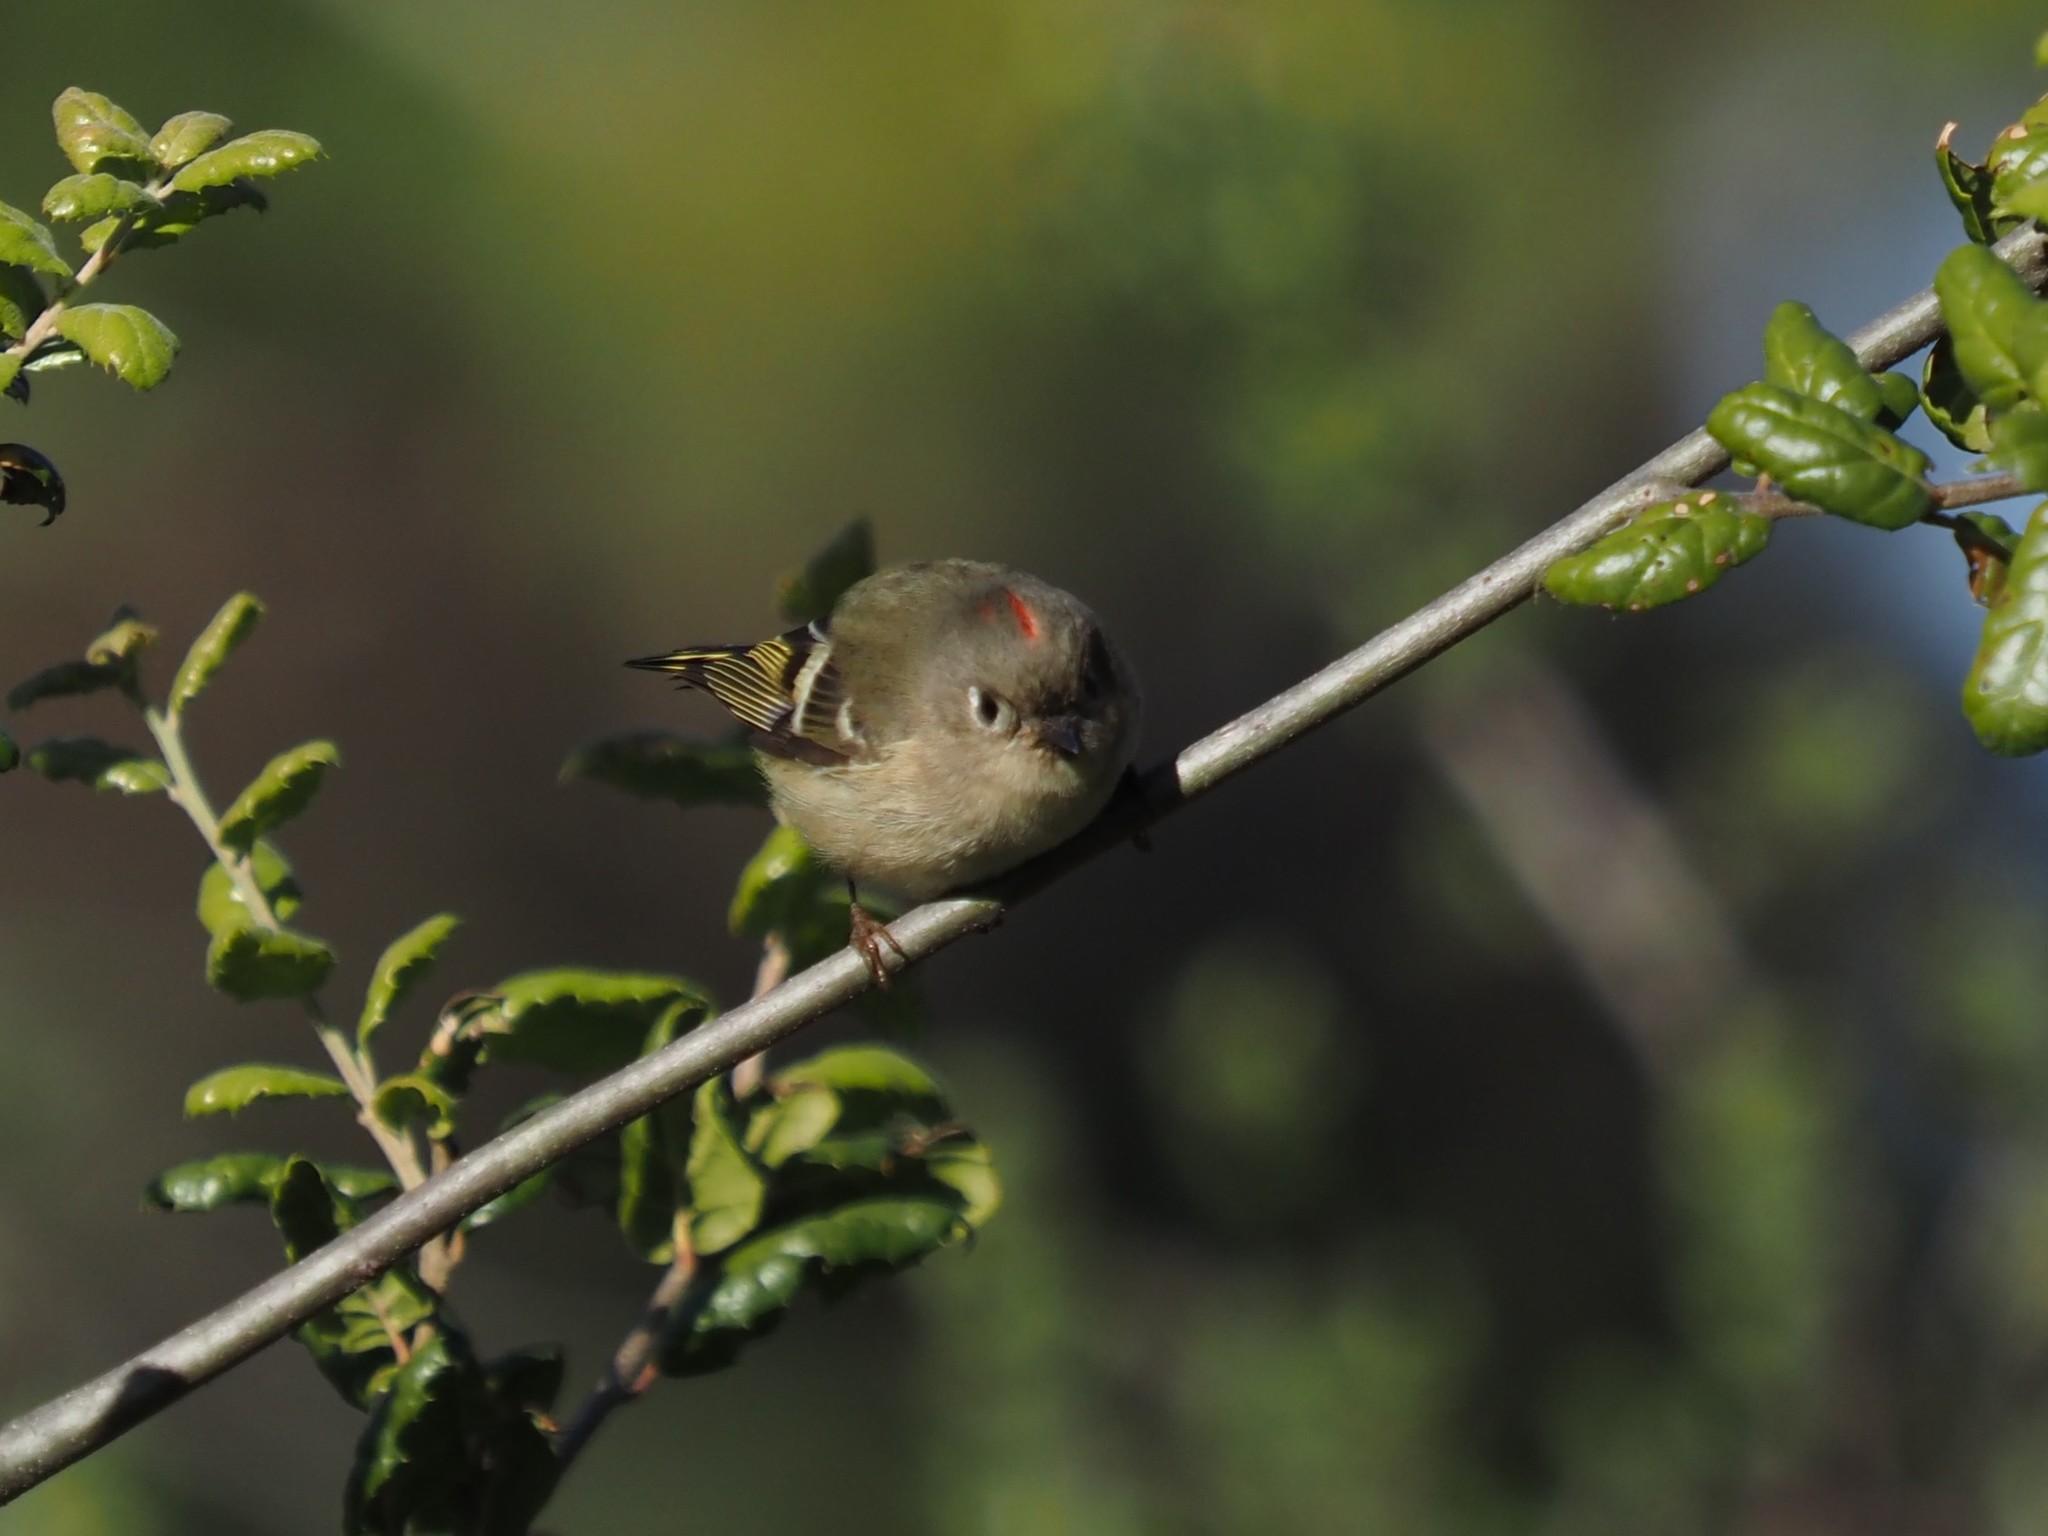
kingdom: Animalia
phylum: Chordata
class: Aves
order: Passeriformes
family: Regulidae
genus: Regulus
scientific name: Regulus calendula
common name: Ruby-crowned kinglet
